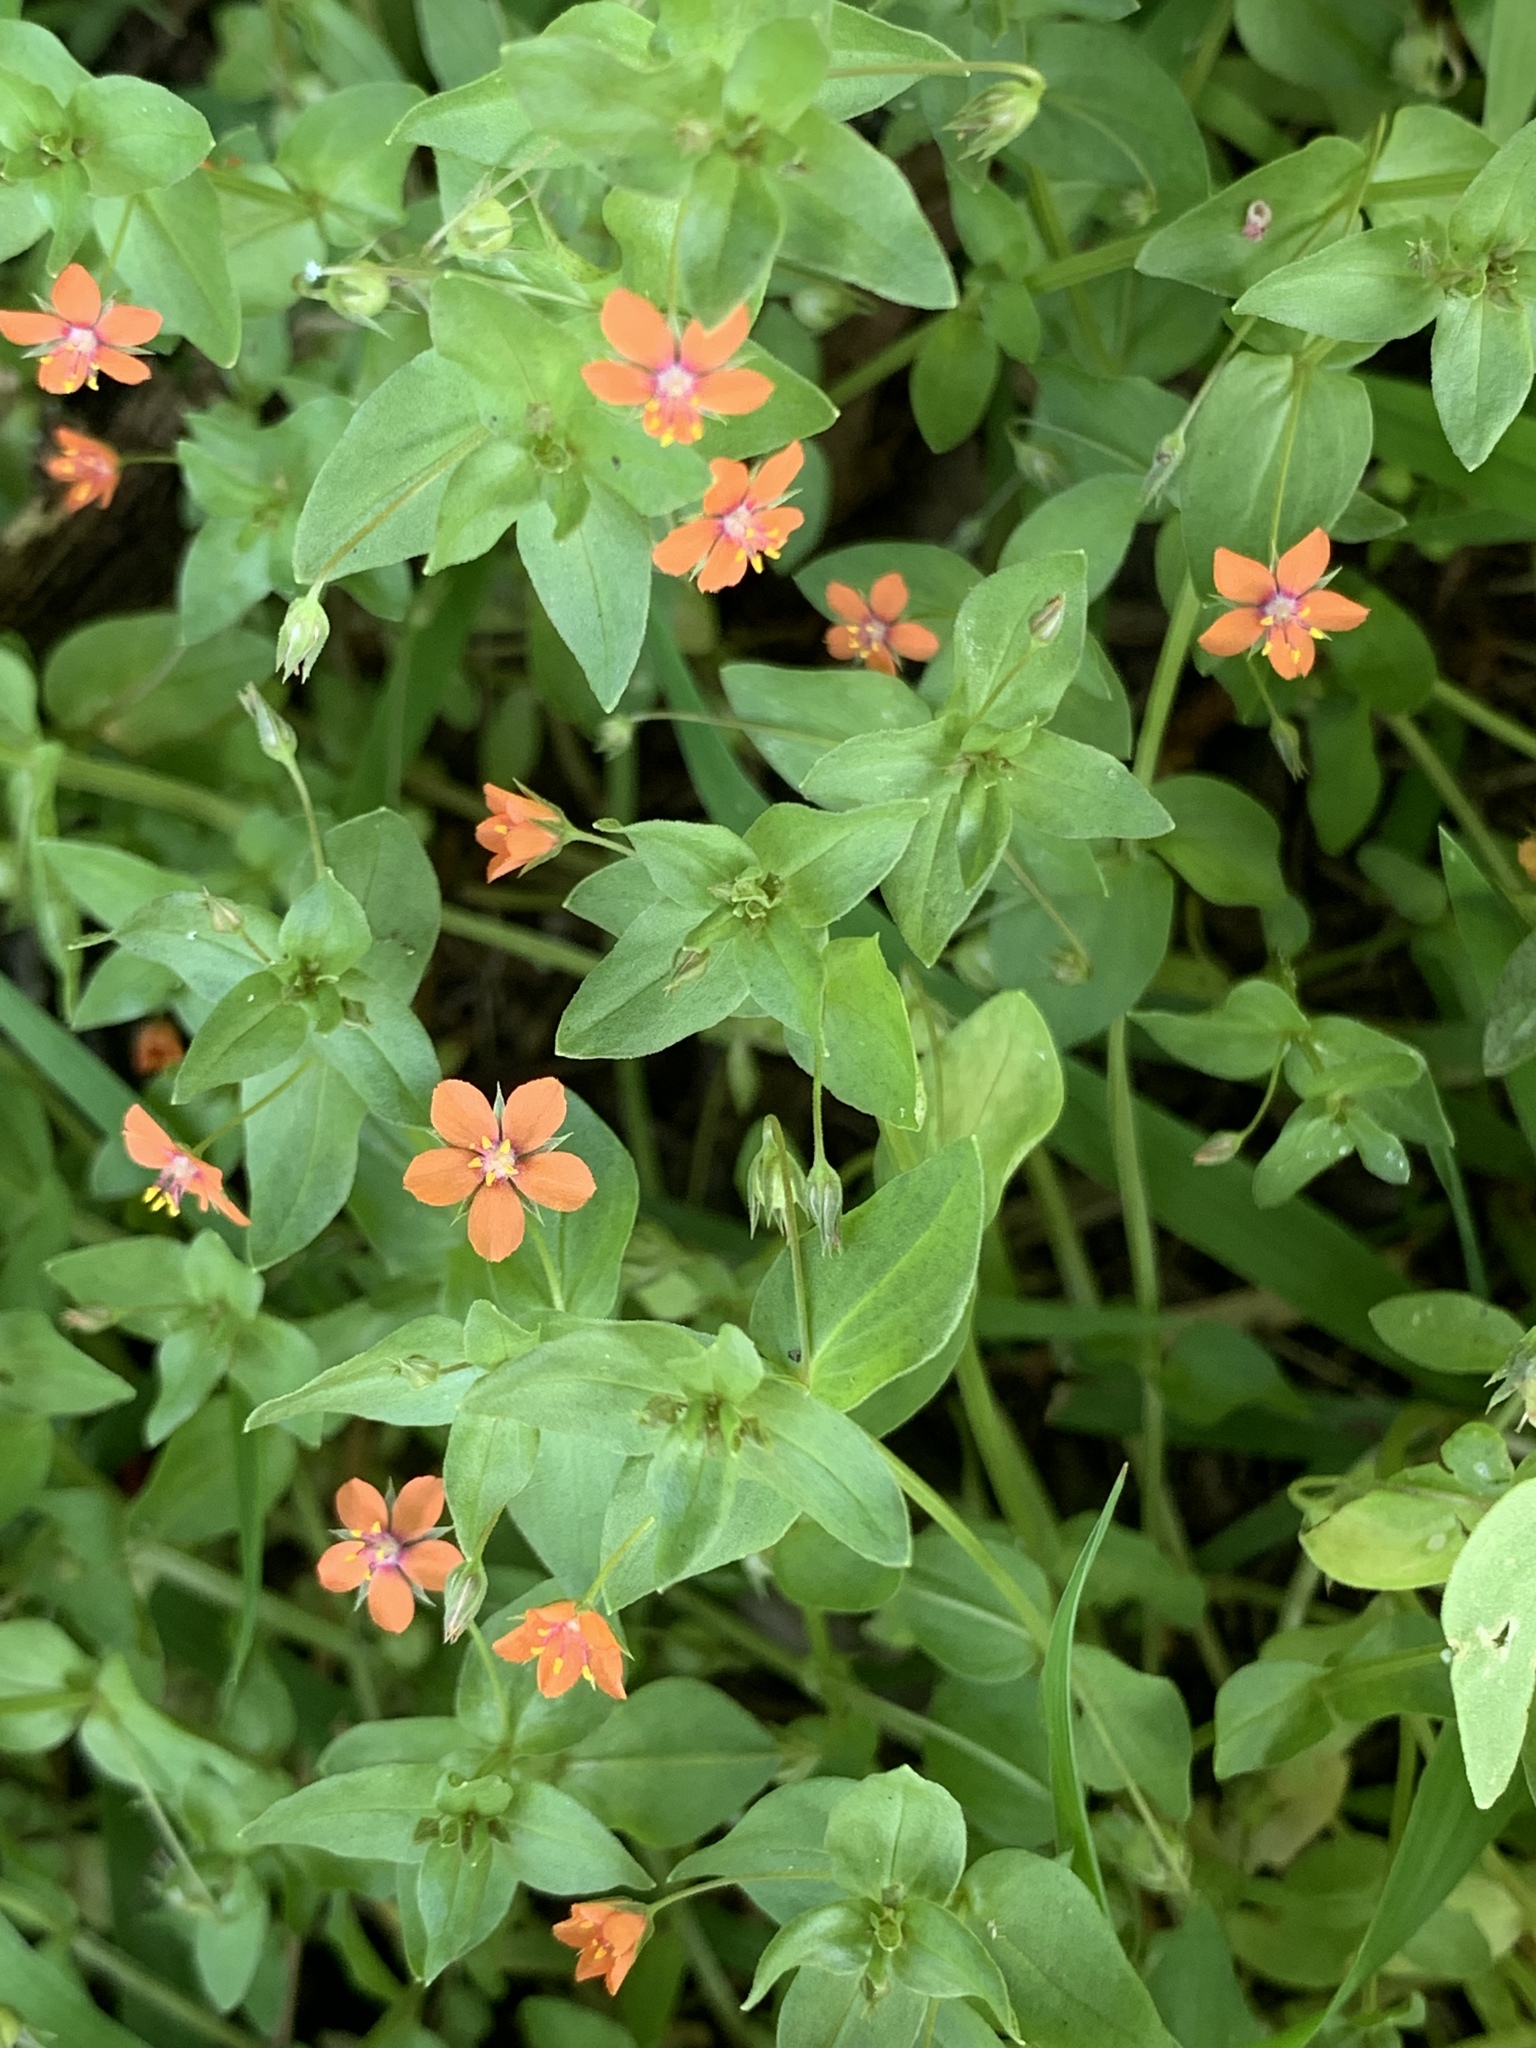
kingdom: Plantae
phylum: Tracheophyta
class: Magnoliopsida
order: Ericales
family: Primulaceae
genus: Lysimachia
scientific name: Lysimachia arvensis
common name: Scarlet pimpernel
